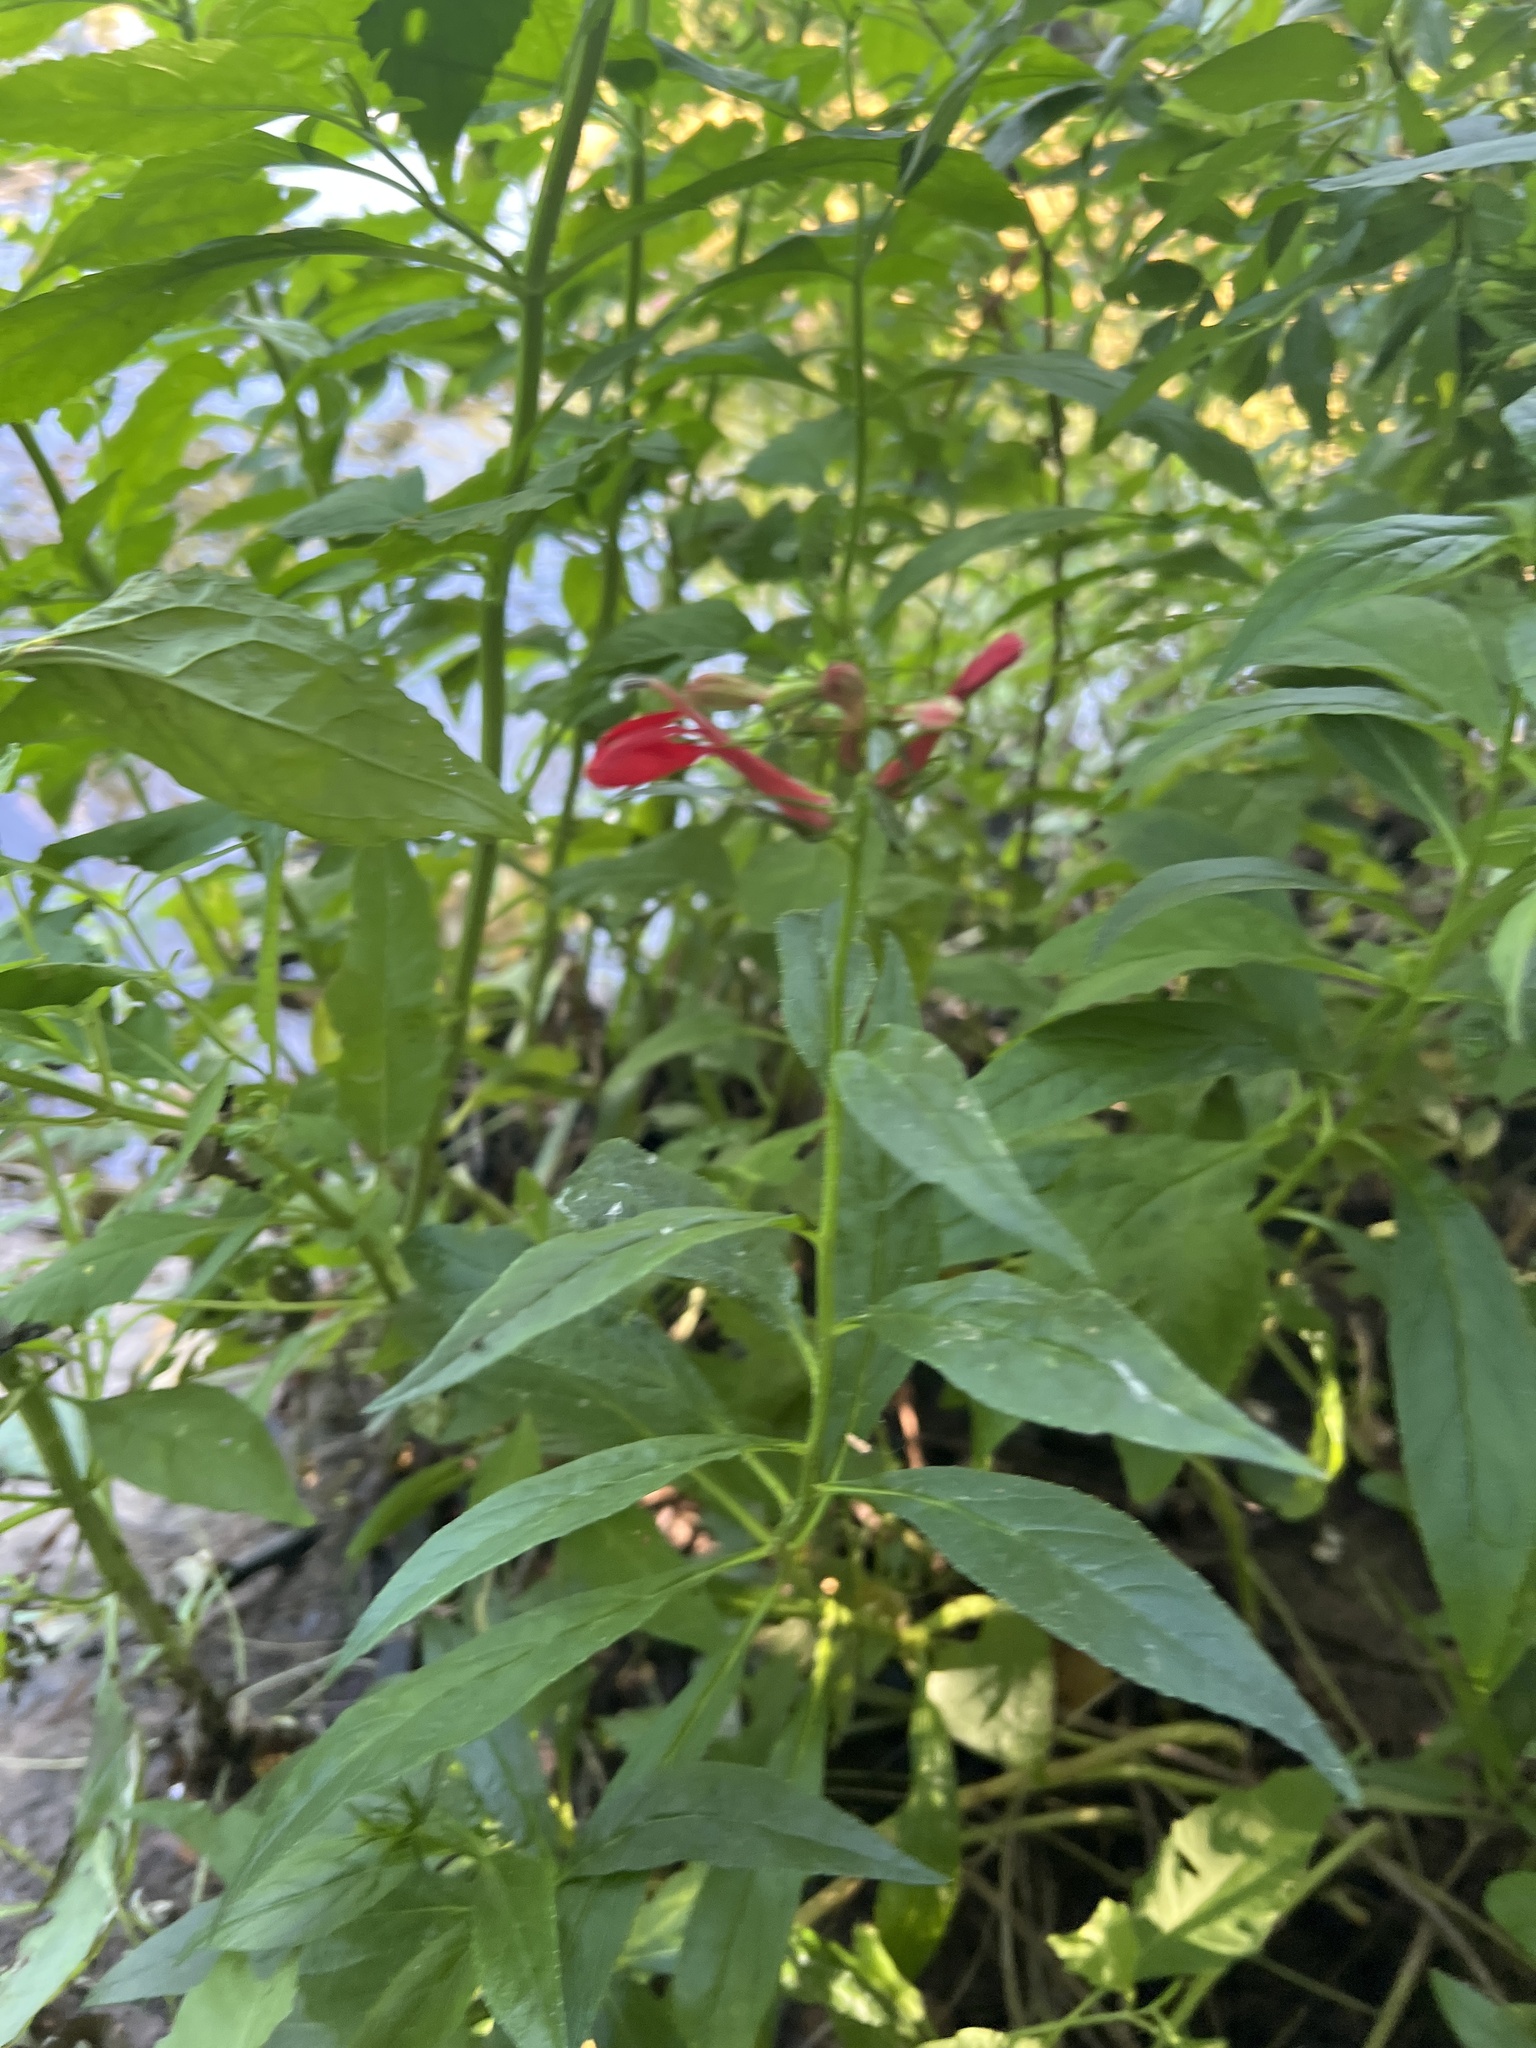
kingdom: Plantae
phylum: Tracheophyta
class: Magnoliopsida
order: Asterales
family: Campanulaceae
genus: Lobelia
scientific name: Lobelia cardinalis
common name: Cardinal flower
